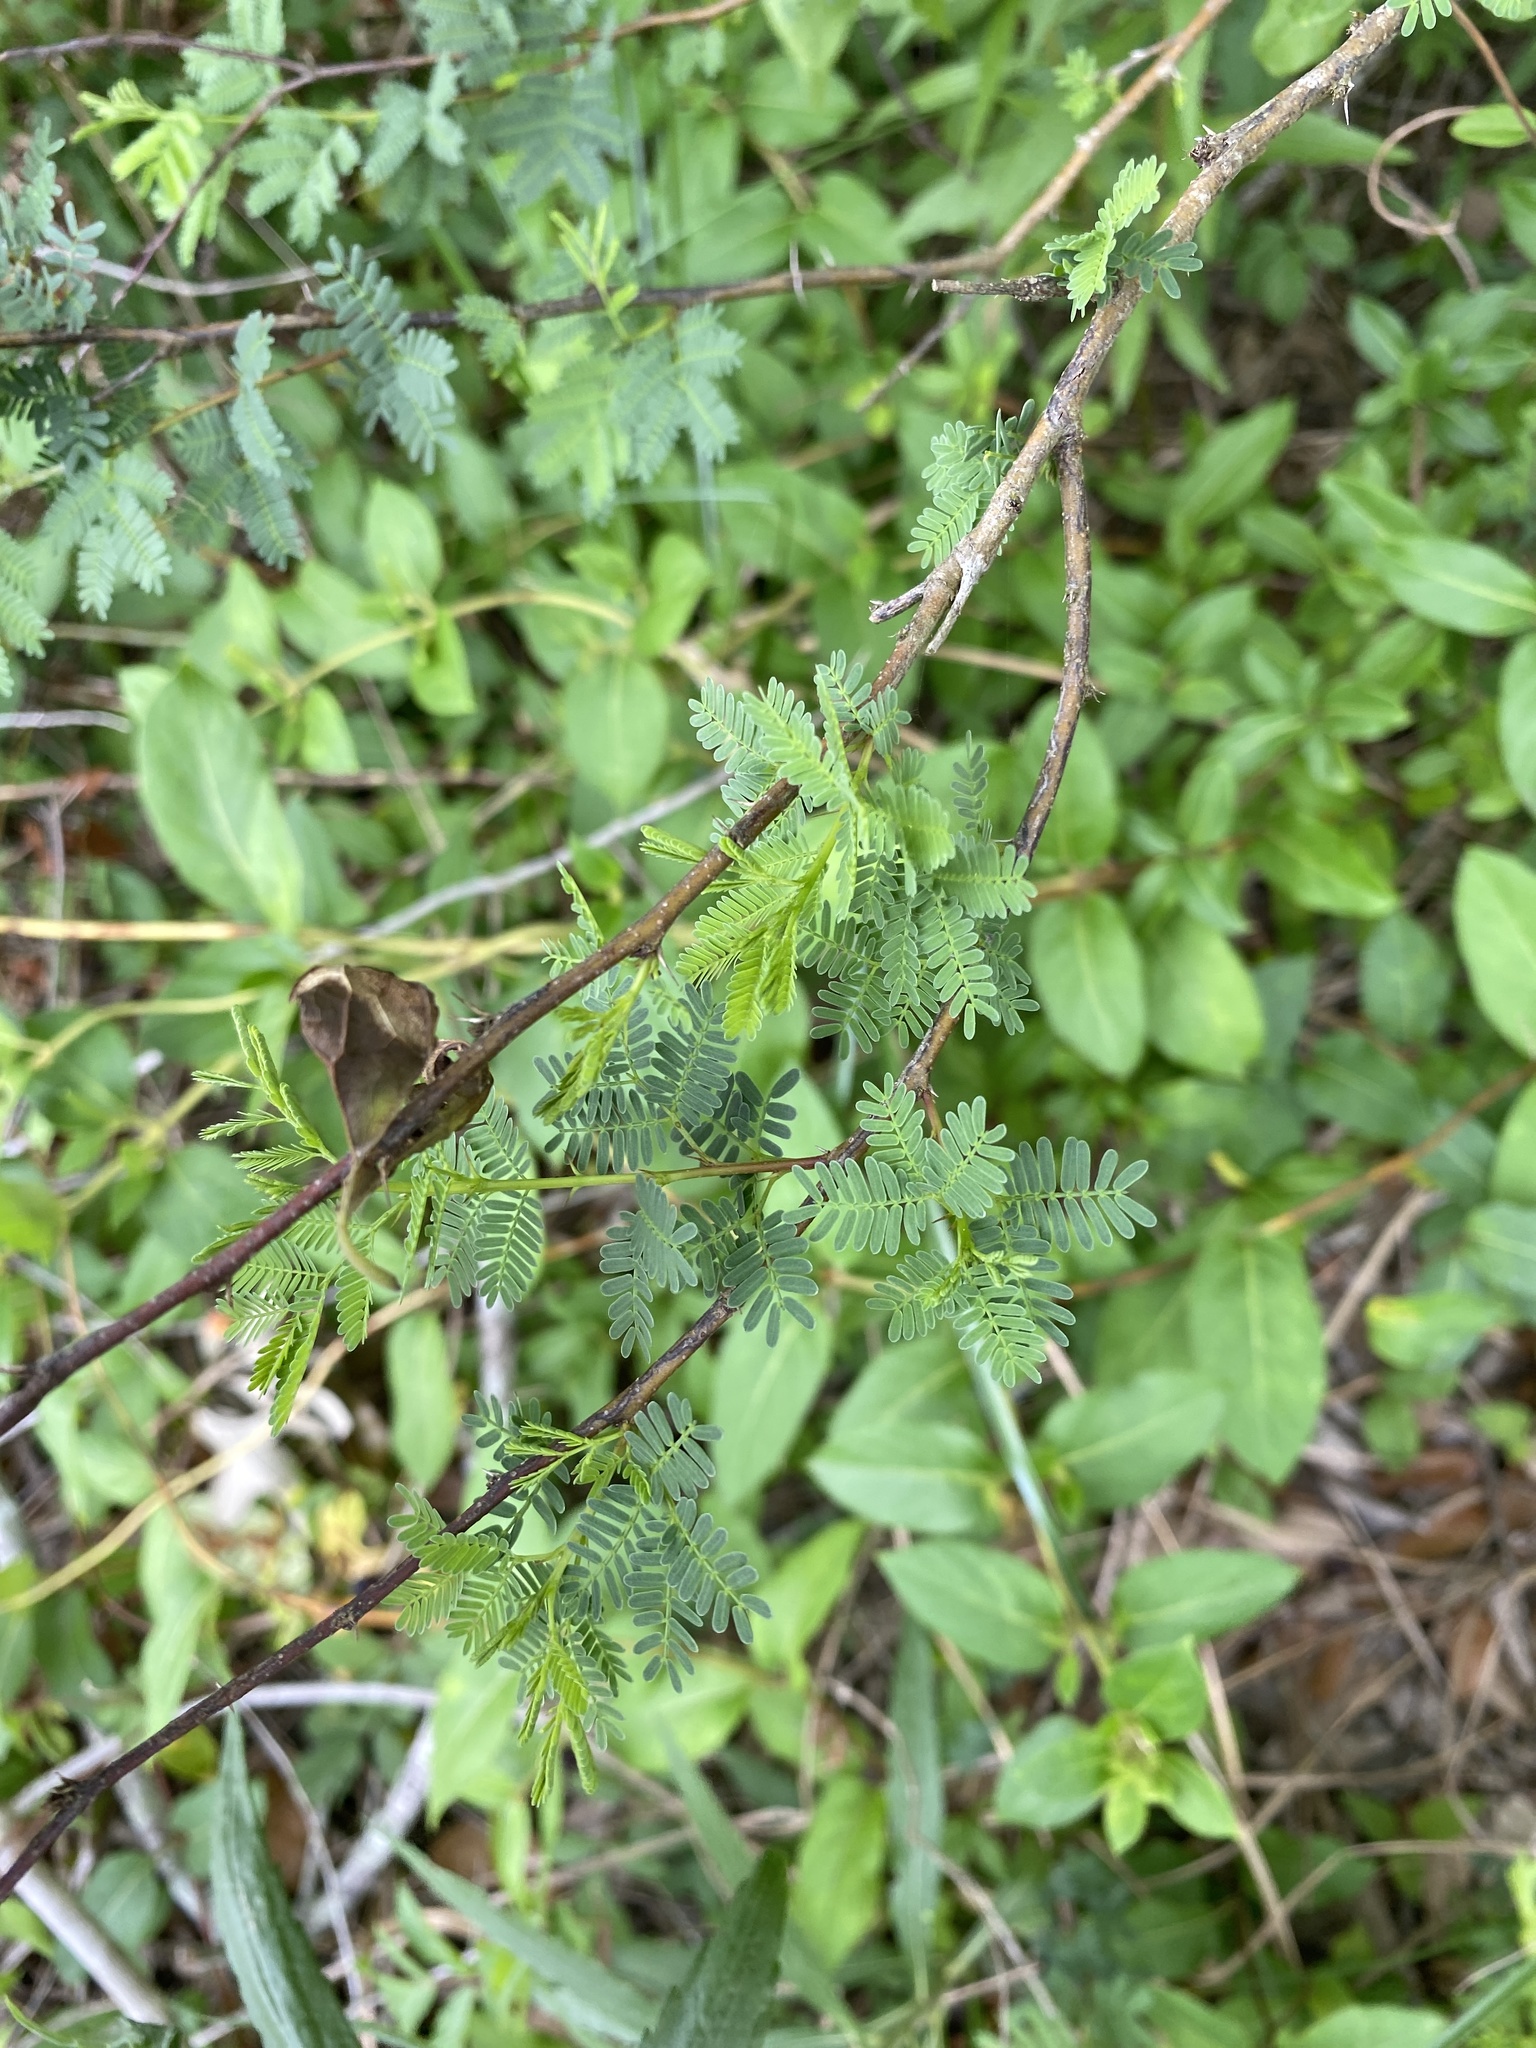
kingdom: Plantae
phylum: Tracheophyta
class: Magnoliopsida
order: Fabales
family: Fabaceae
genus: Vachellia
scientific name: Vachellia farnesiana
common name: Sweet acacia
